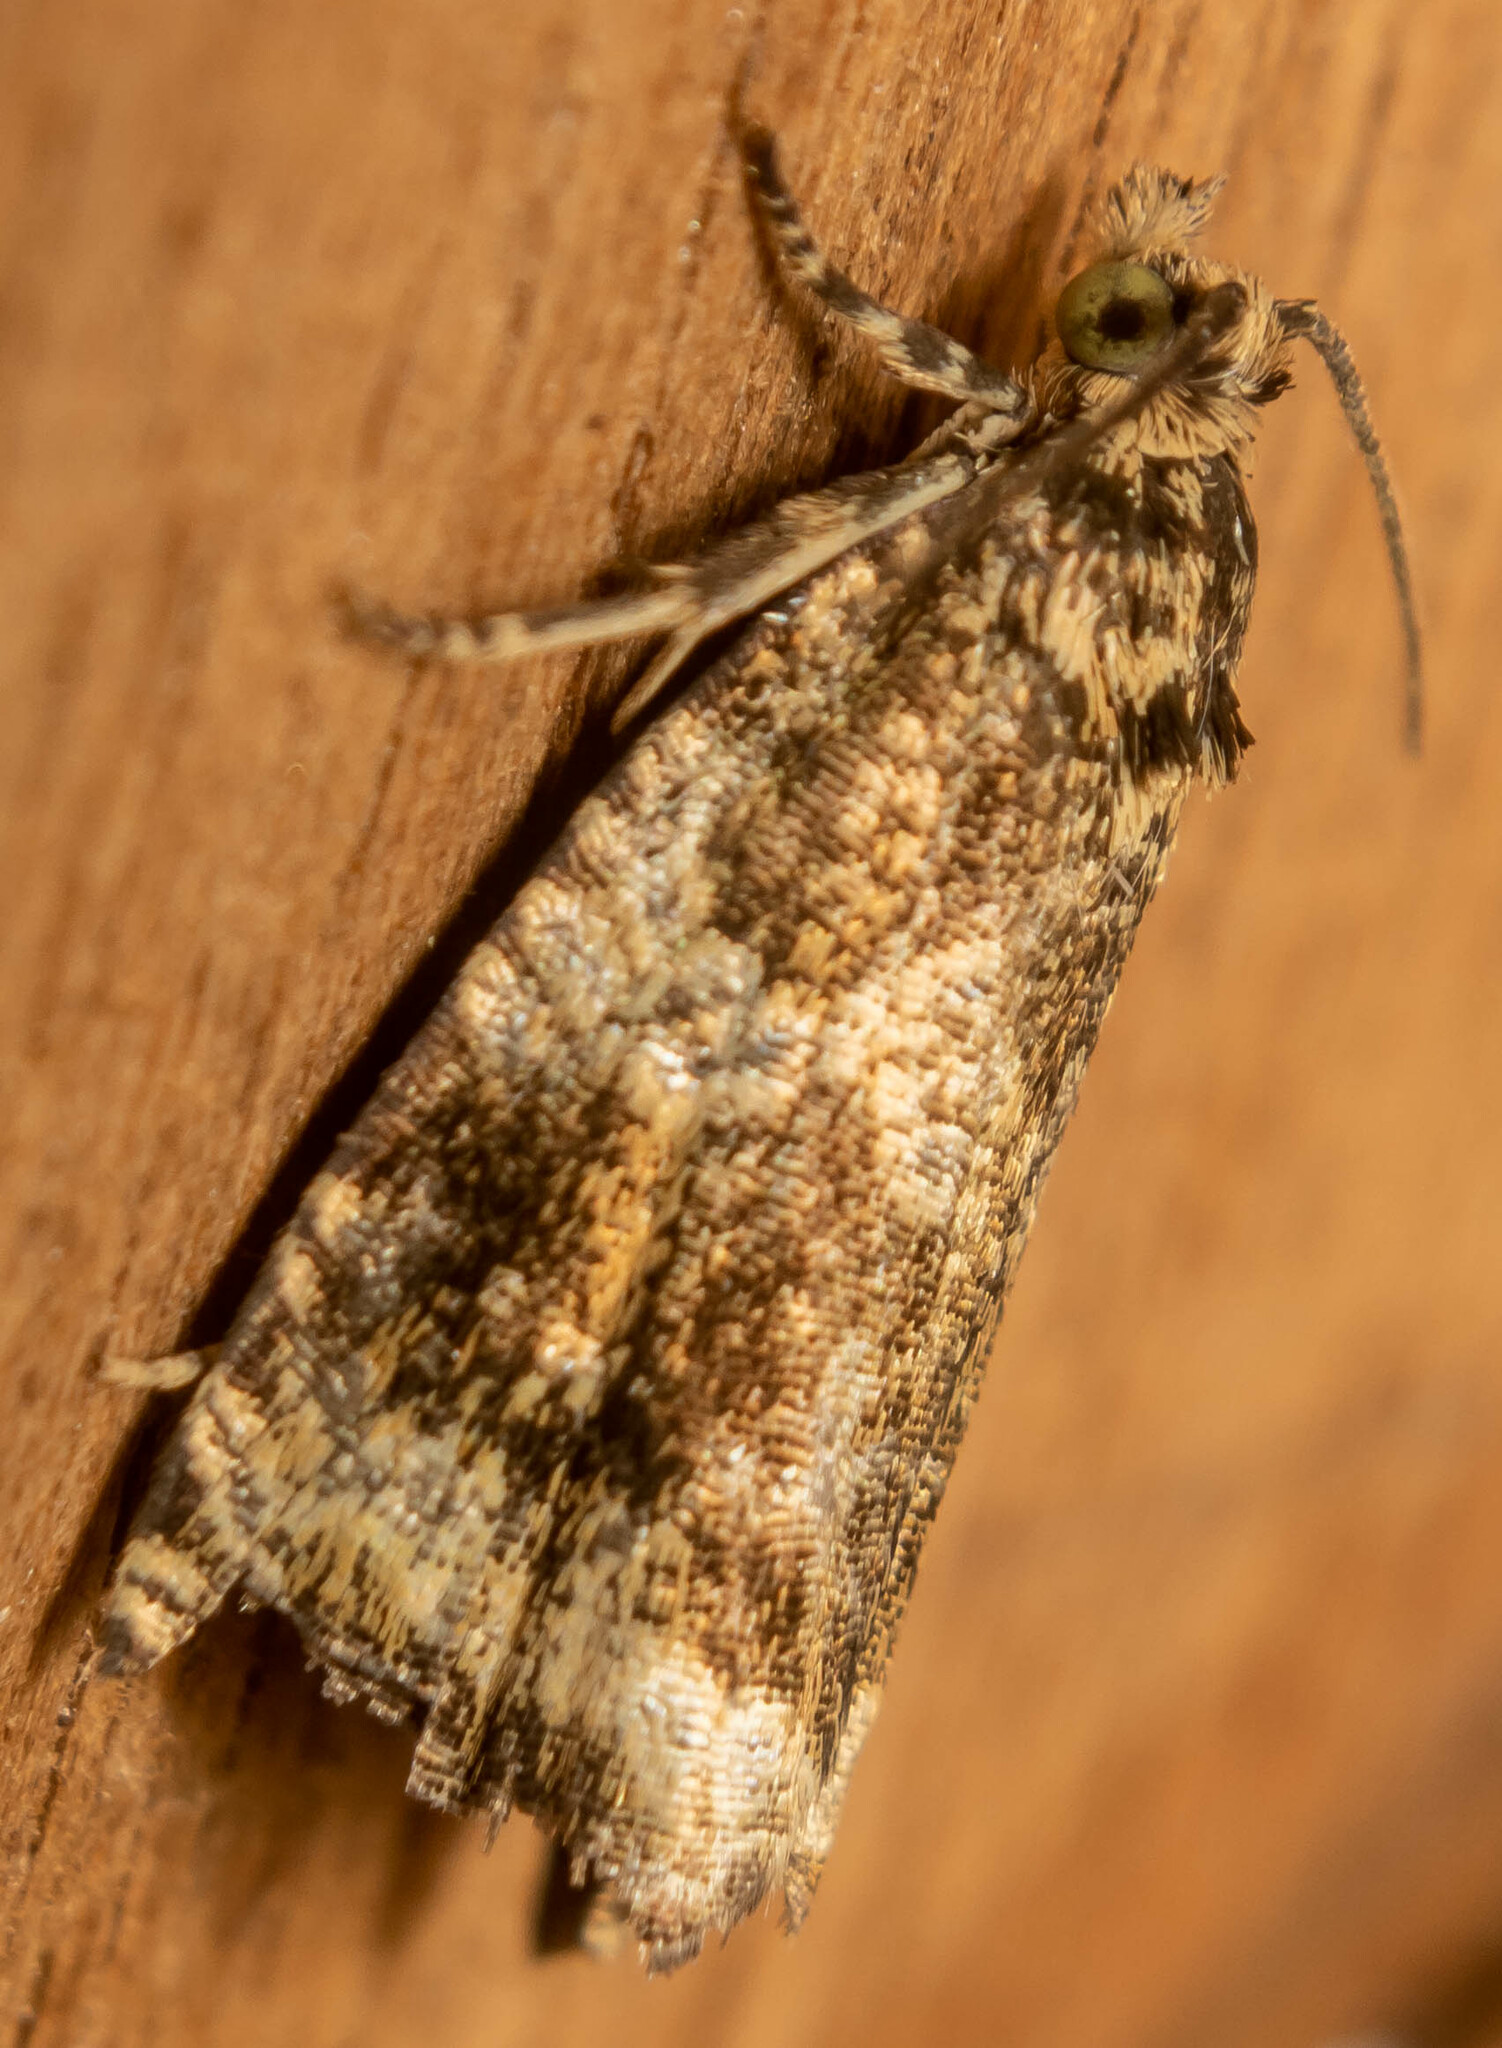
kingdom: Animalia
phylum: Arthropoda
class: Insecta
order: Lepidoptera
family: Tortricidae
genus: Syricoris
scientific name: Syricoris lacunana
